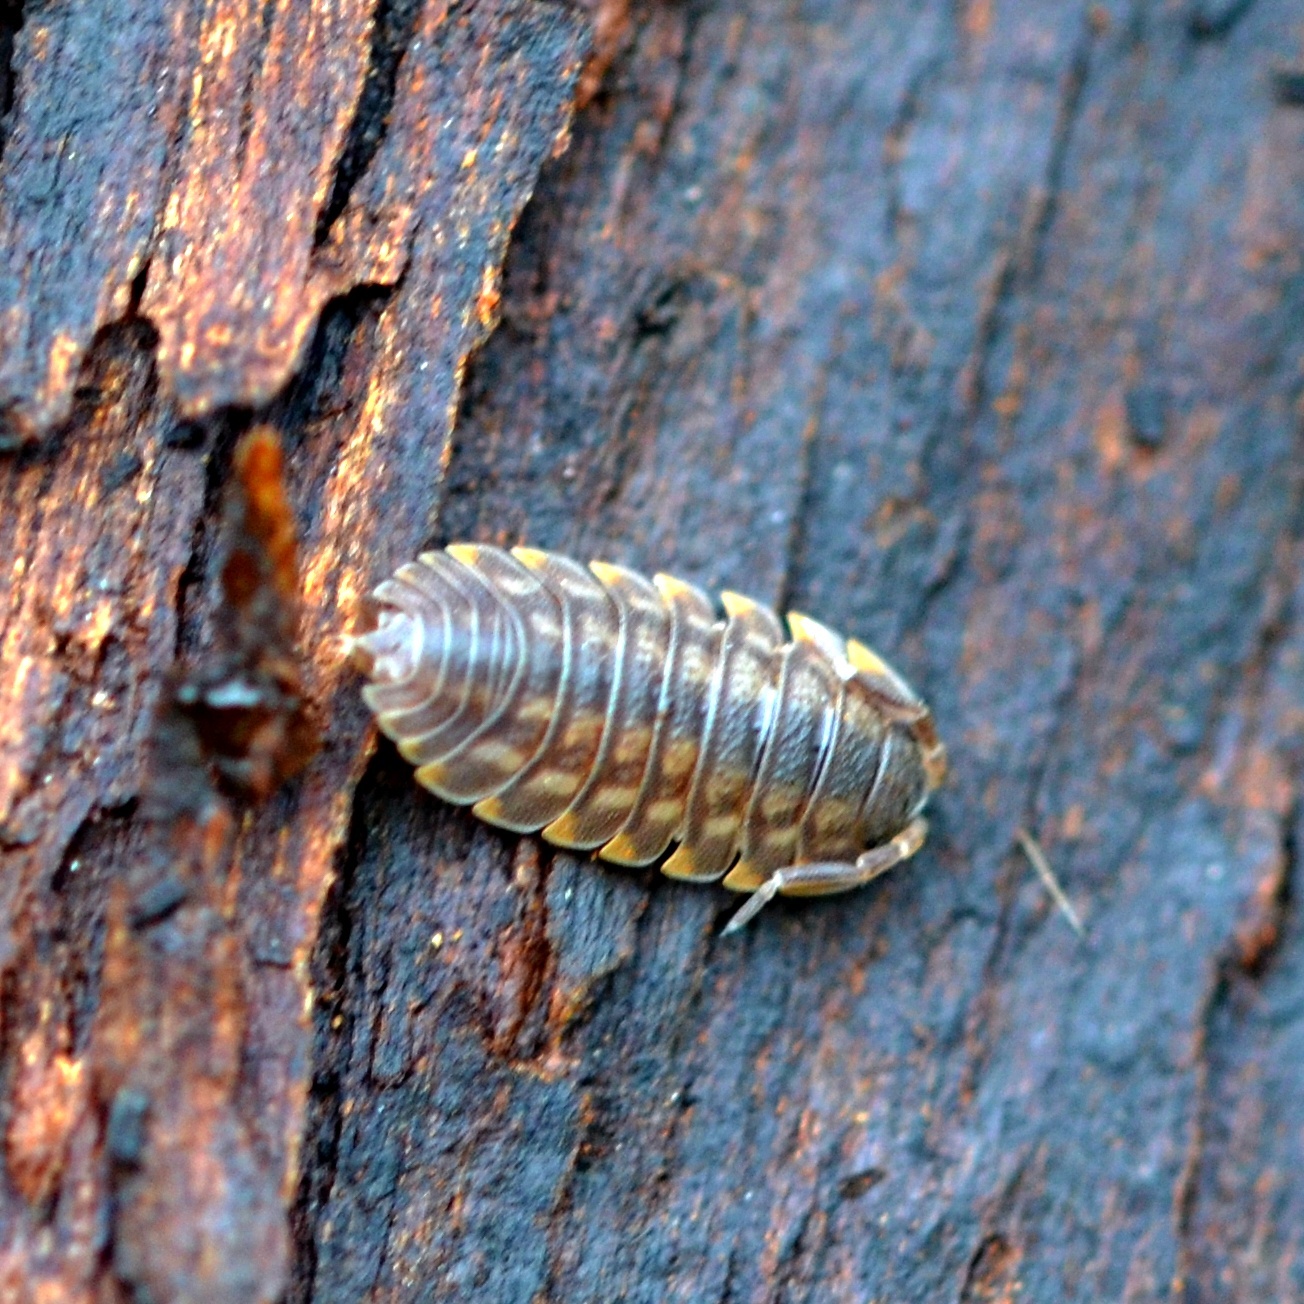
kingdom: Animalia
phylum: Arthropoda
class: Malacostraca
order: Isopoda
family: Trachelipodidae
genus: Trachelipus
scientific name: Trachelipus ratzeburgii
